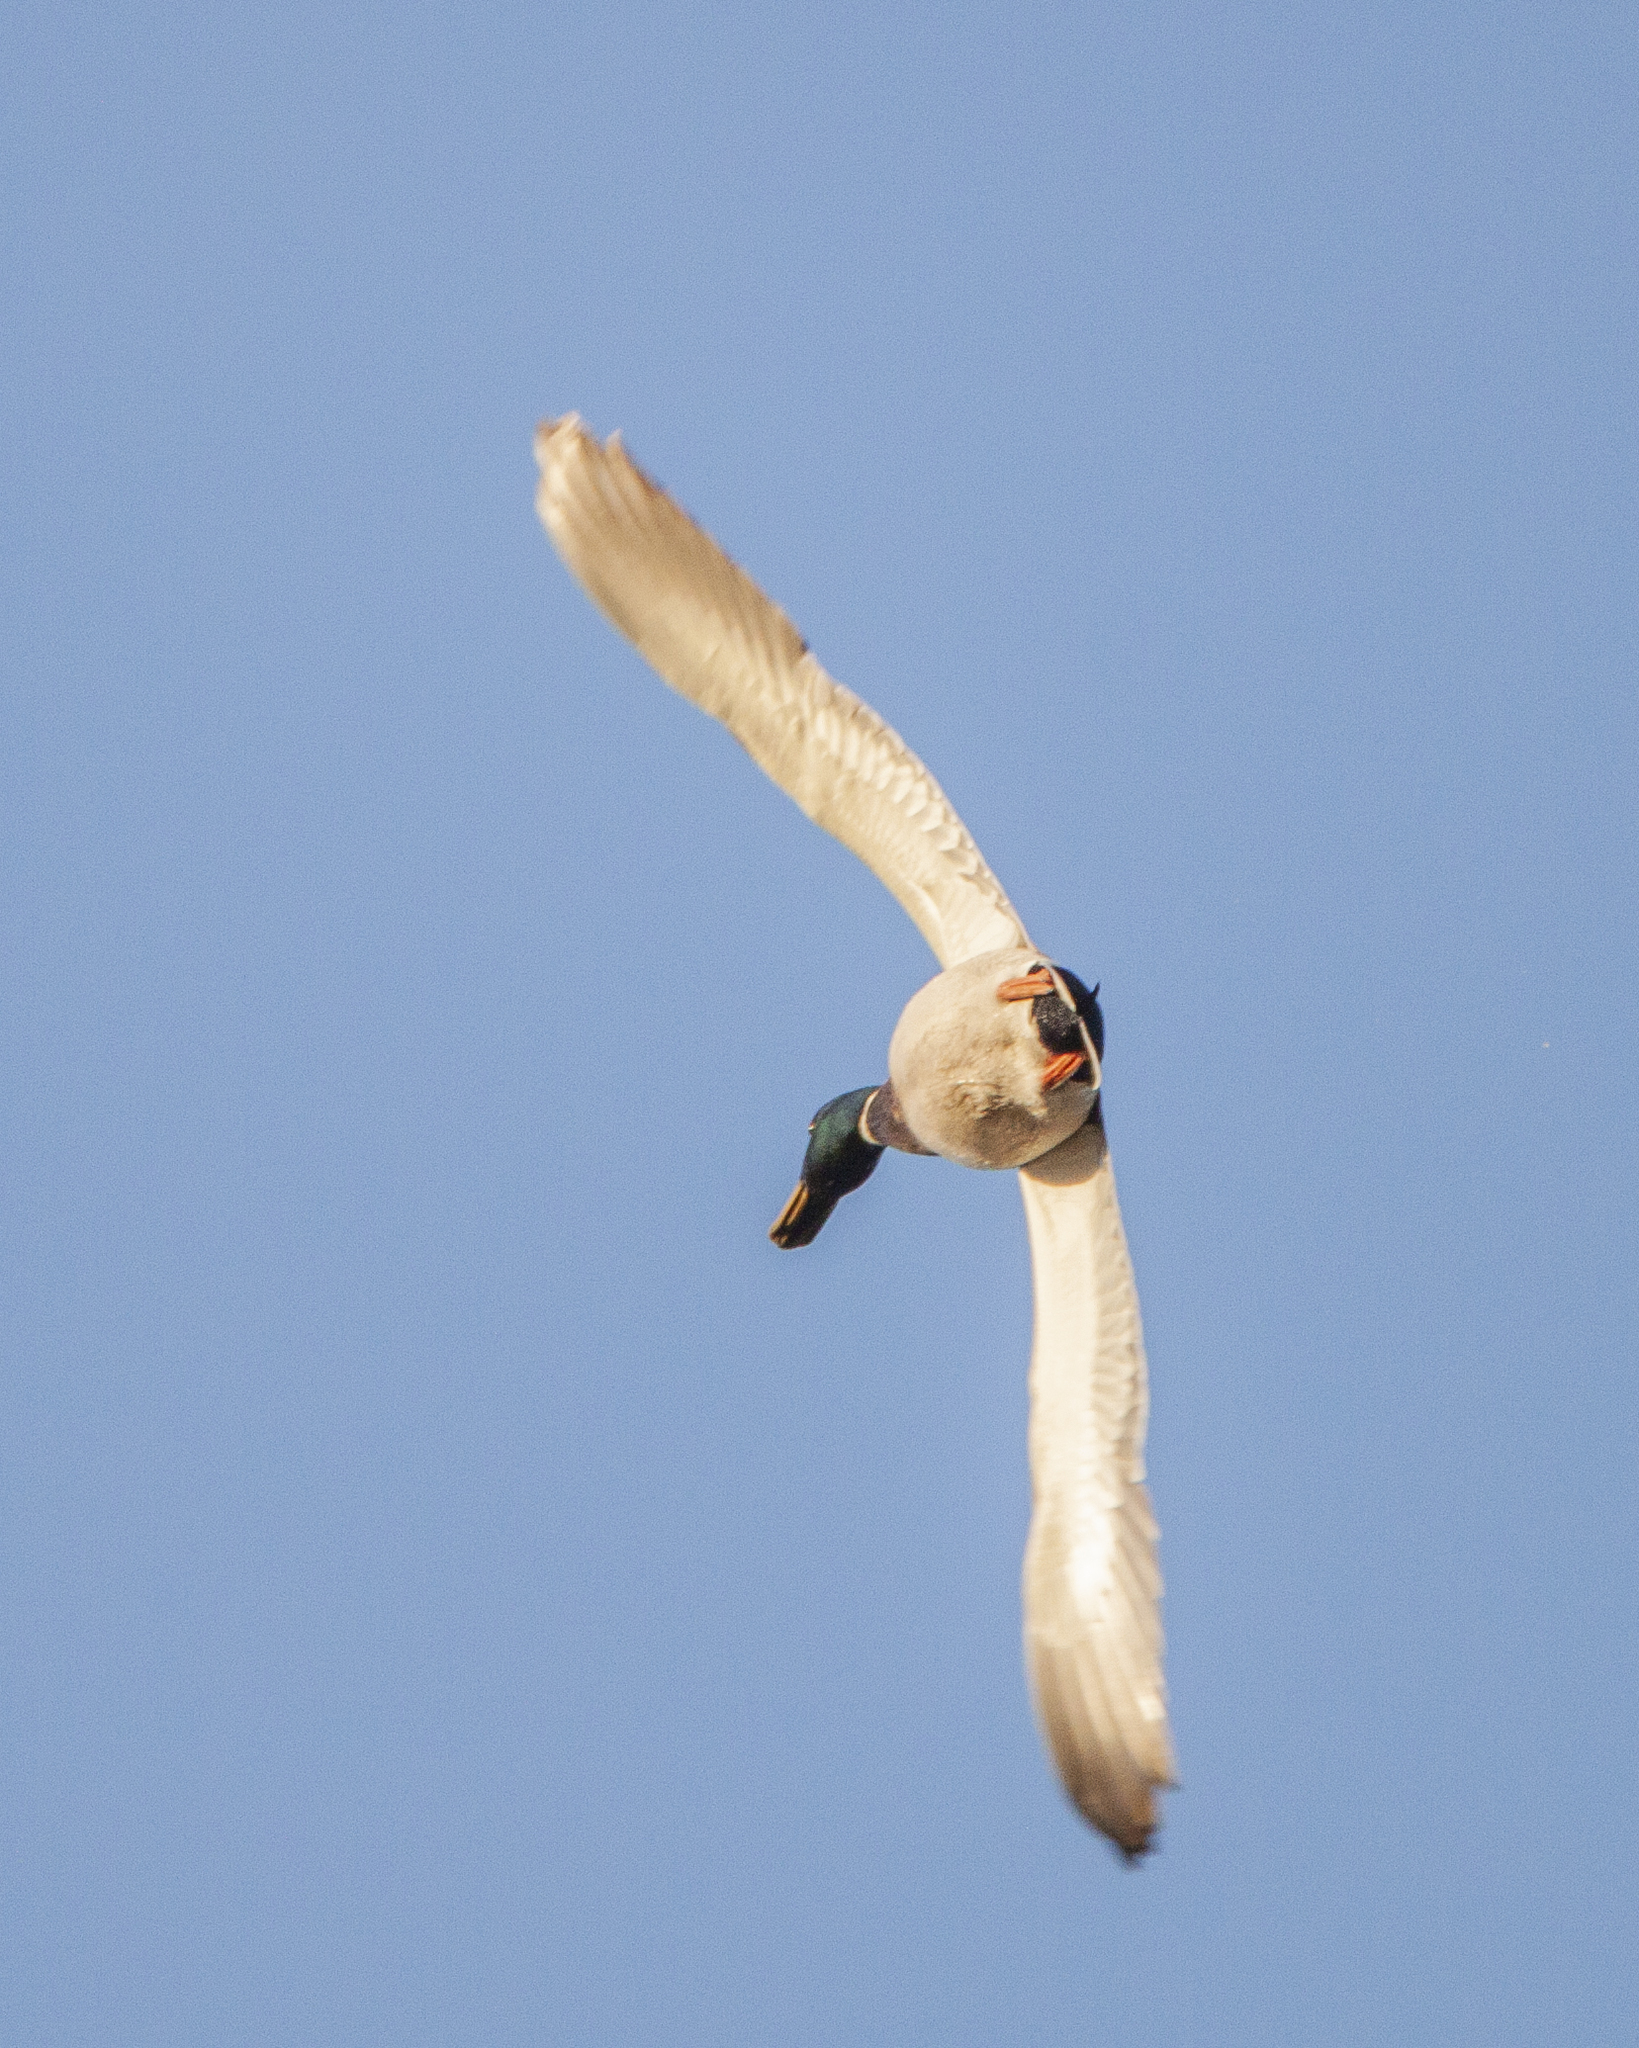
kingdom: Animalia
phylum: Chordata
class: Aves
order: Anseriformes
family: Anatidae
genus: Anas
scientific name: Anas platyrhynchos
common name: Mallard
